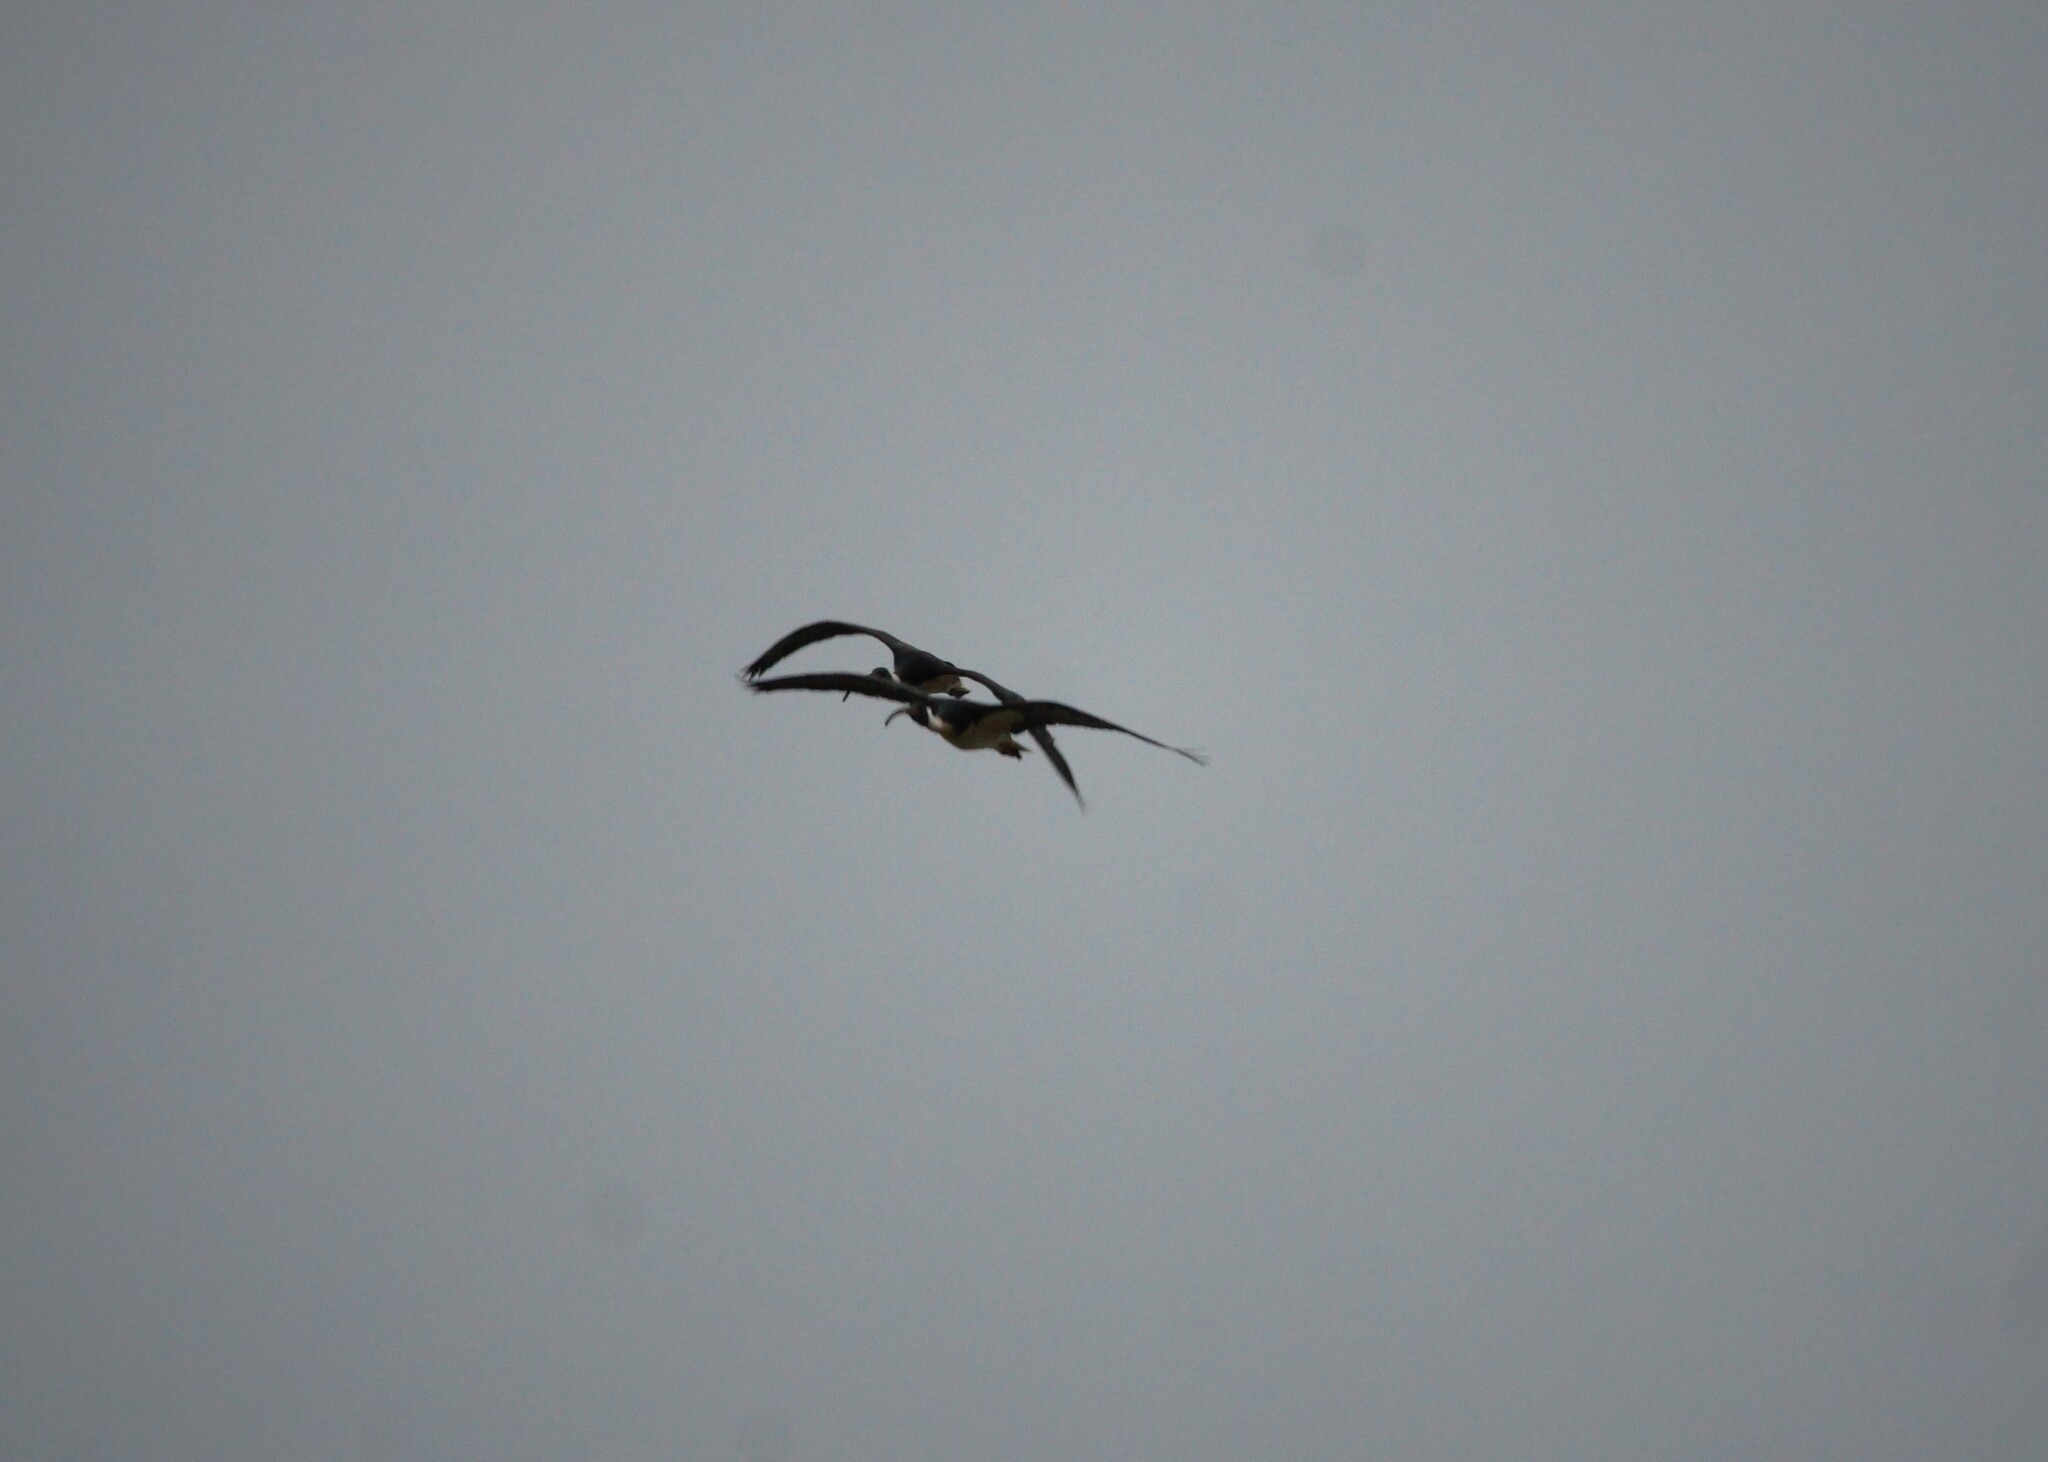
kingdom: Animalia
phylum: Chordata
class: Aves
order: Pelecaniformes
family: Threskiornithidae
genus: Threskiornis
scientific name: Threskiornis spinicollis
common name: Straw-necked ibis
